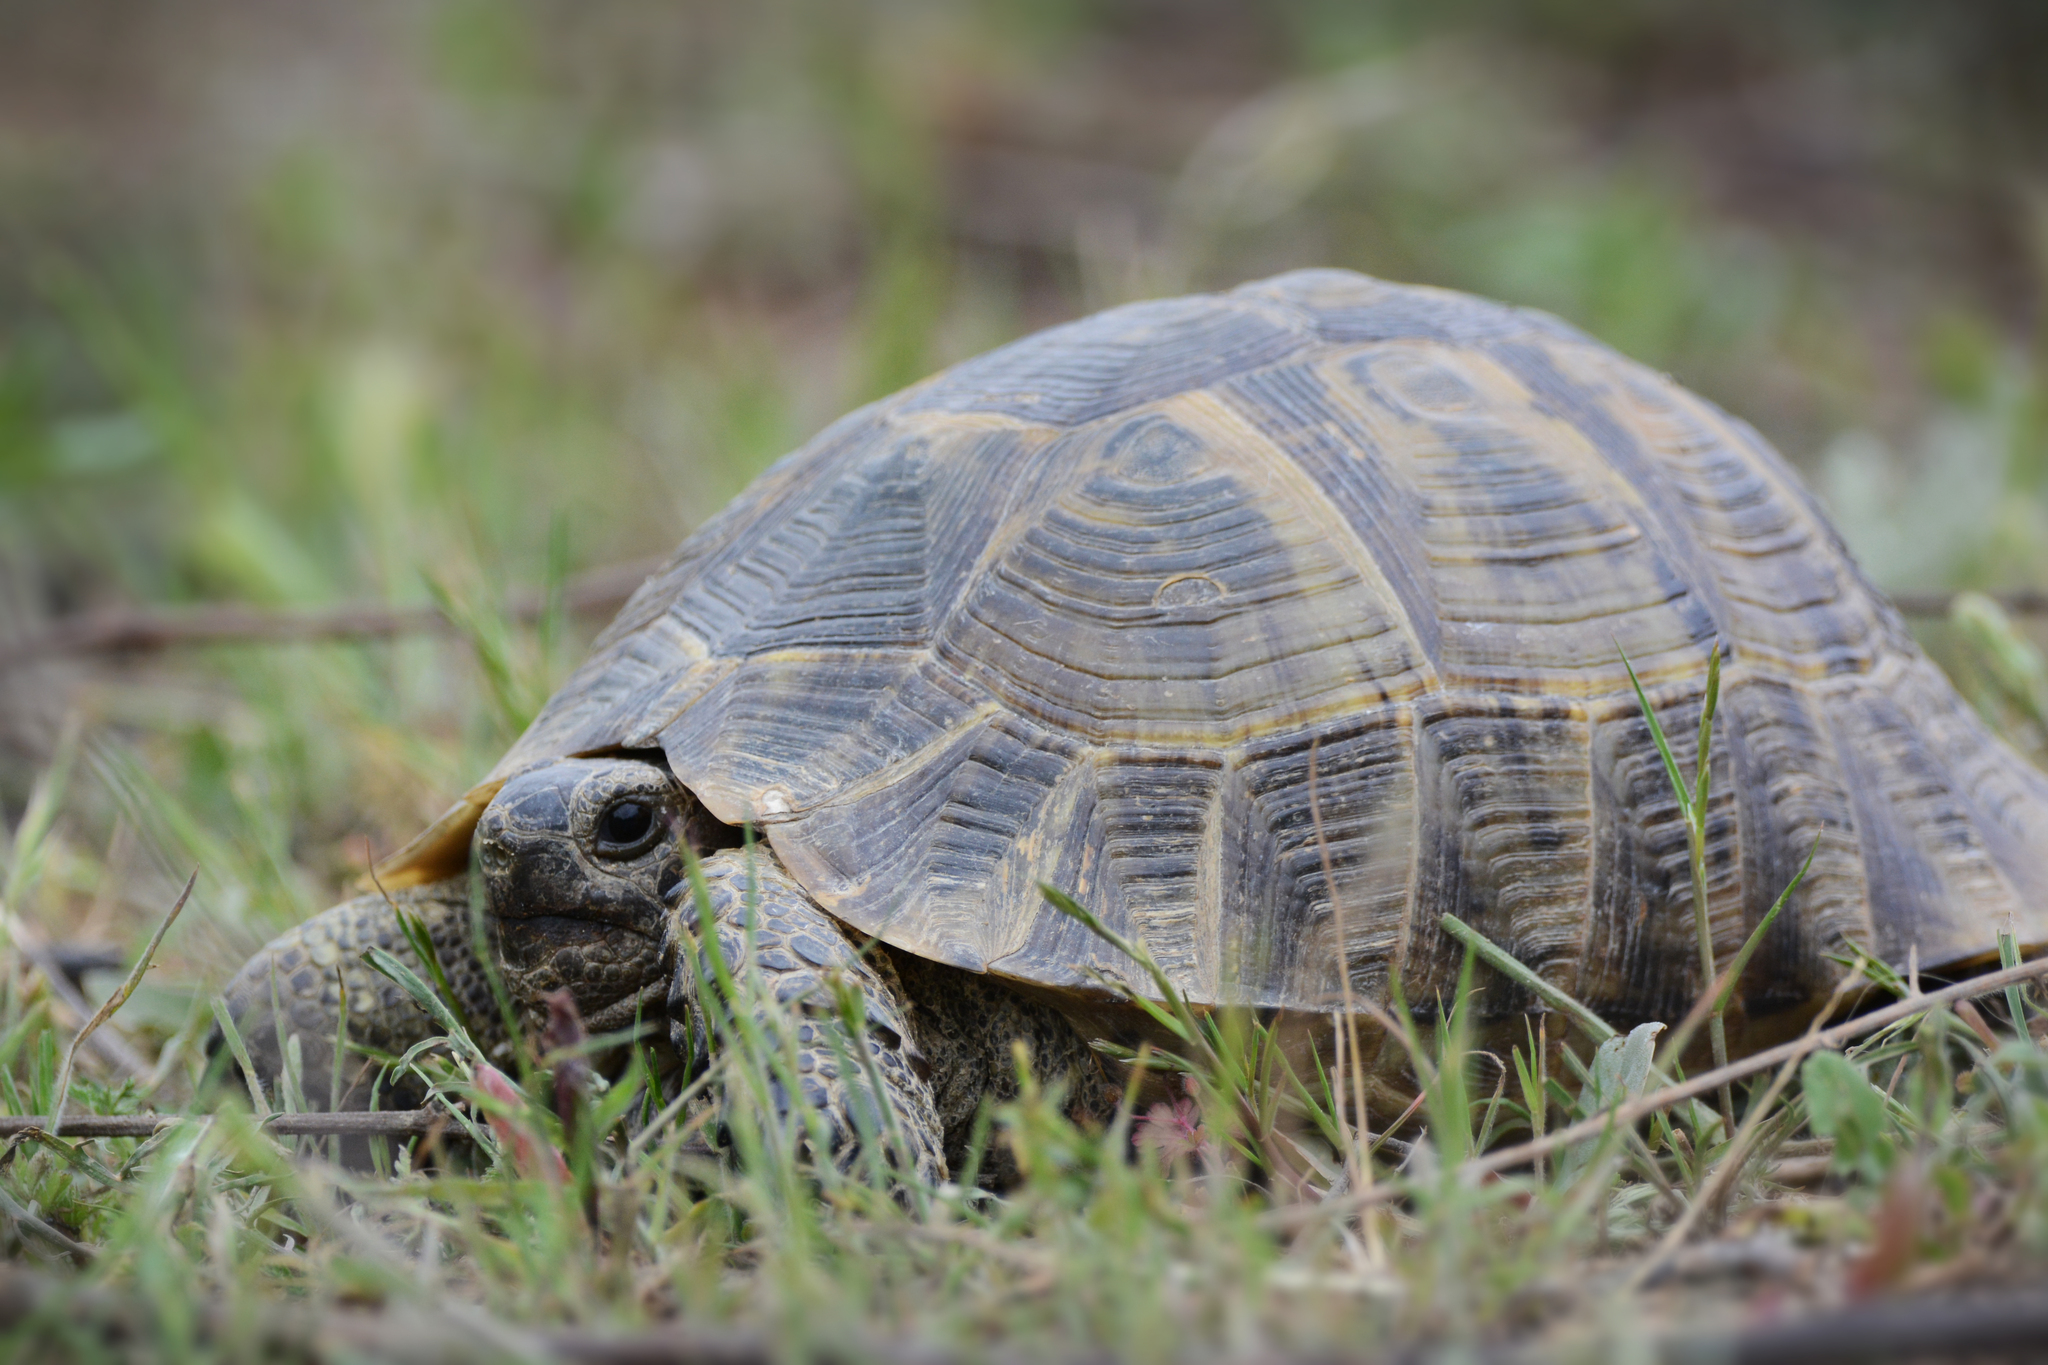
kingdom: Animalia
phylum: Chordata
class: Testudines
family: Testudinidae
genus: Testudo
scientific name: Testudo graeca
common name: Common tortoise
